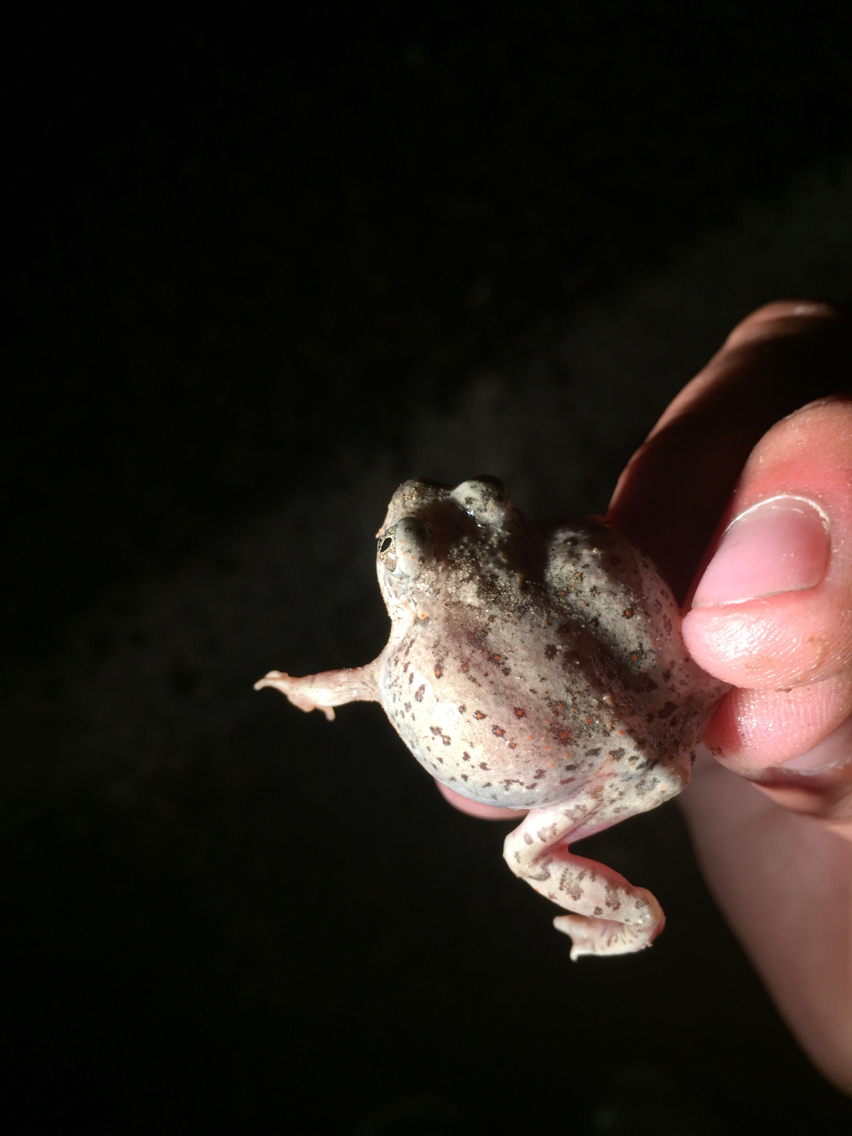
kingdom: Animalia
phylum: Chordata
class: Amphibia
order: Anura
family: Scaphiopodidae
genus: Spea
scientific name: Spea multiplicata
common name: Mexican spadefoot
